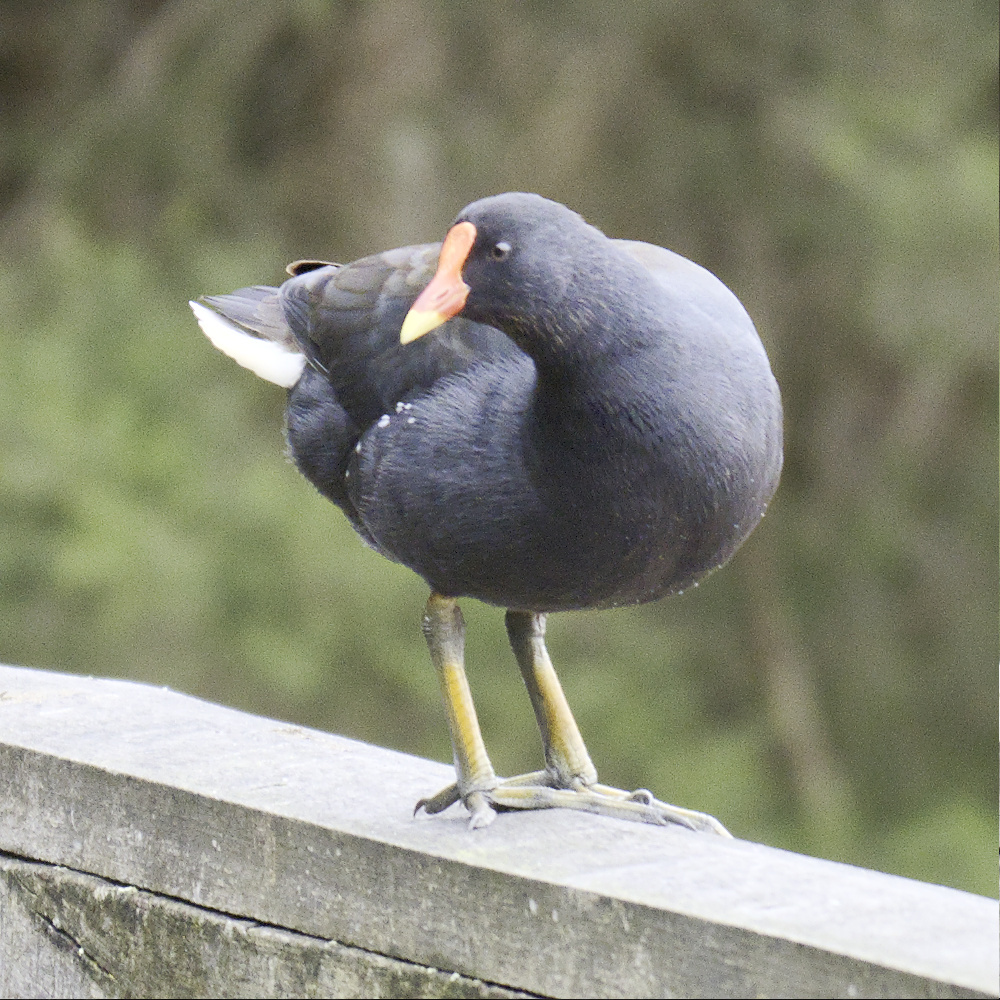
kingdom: Animalia
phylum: Chordata
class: Aves
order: Gruiformes
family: Rallidae
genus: Gallinula
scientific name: Gallinula tenebrosa
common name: Dusky moorhen
